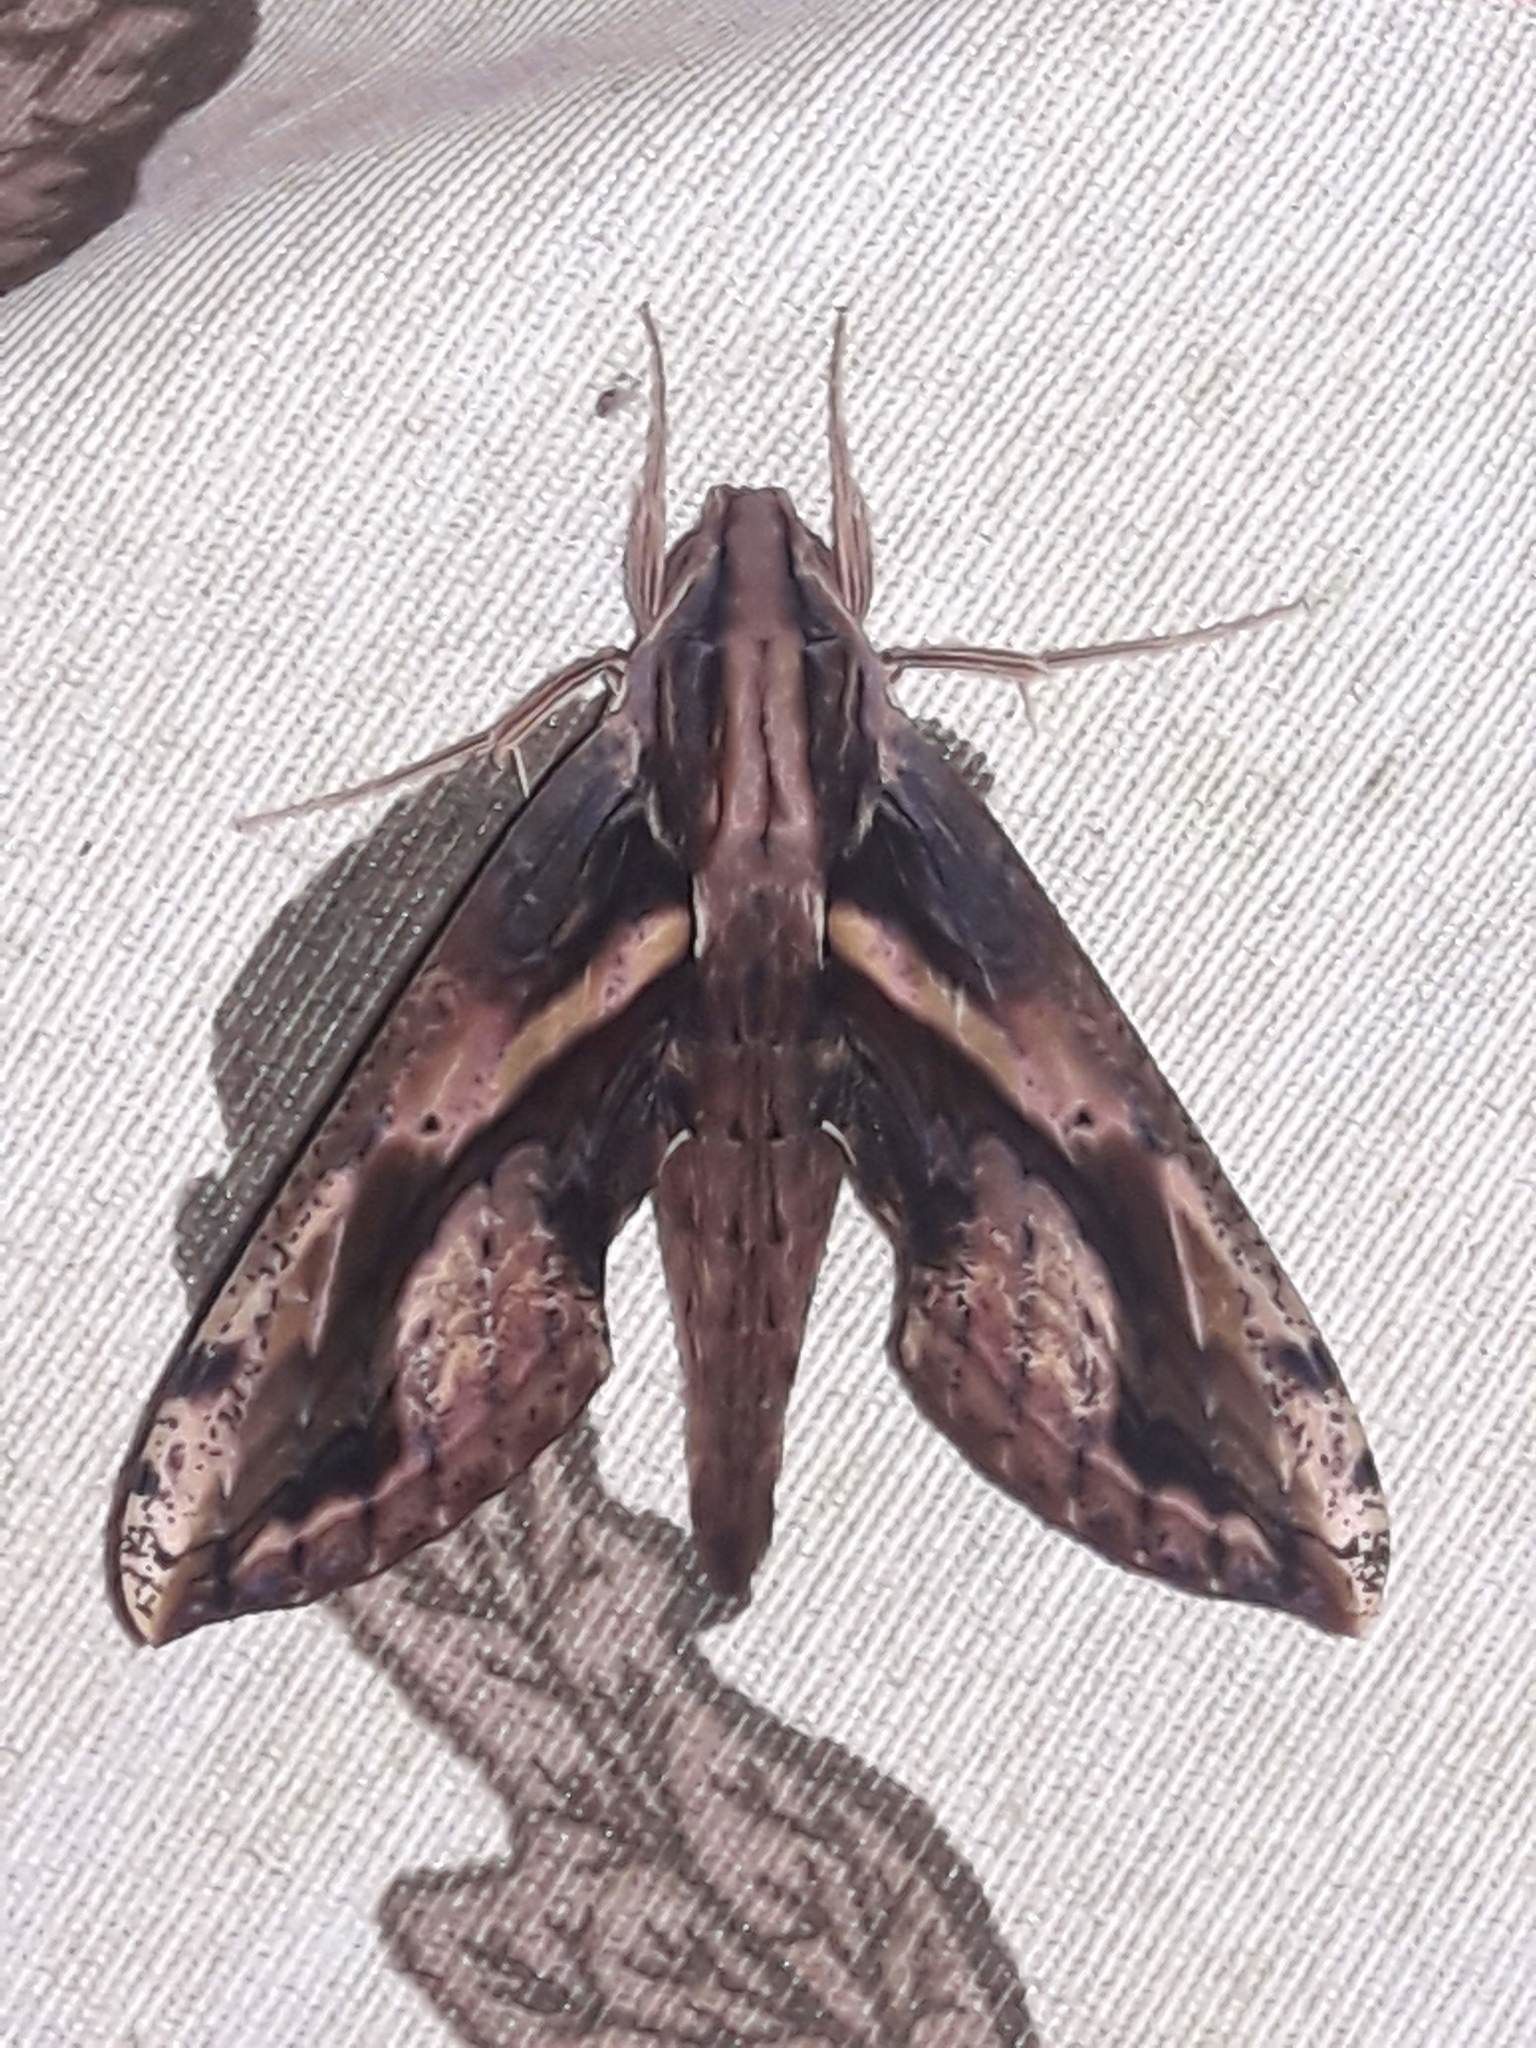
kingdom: Animalia
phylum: Arthropoda
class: Insecta
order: Lepidoptera
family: Sphingidae
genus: Xylophanes
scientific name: Xylophanes ceratomioides
